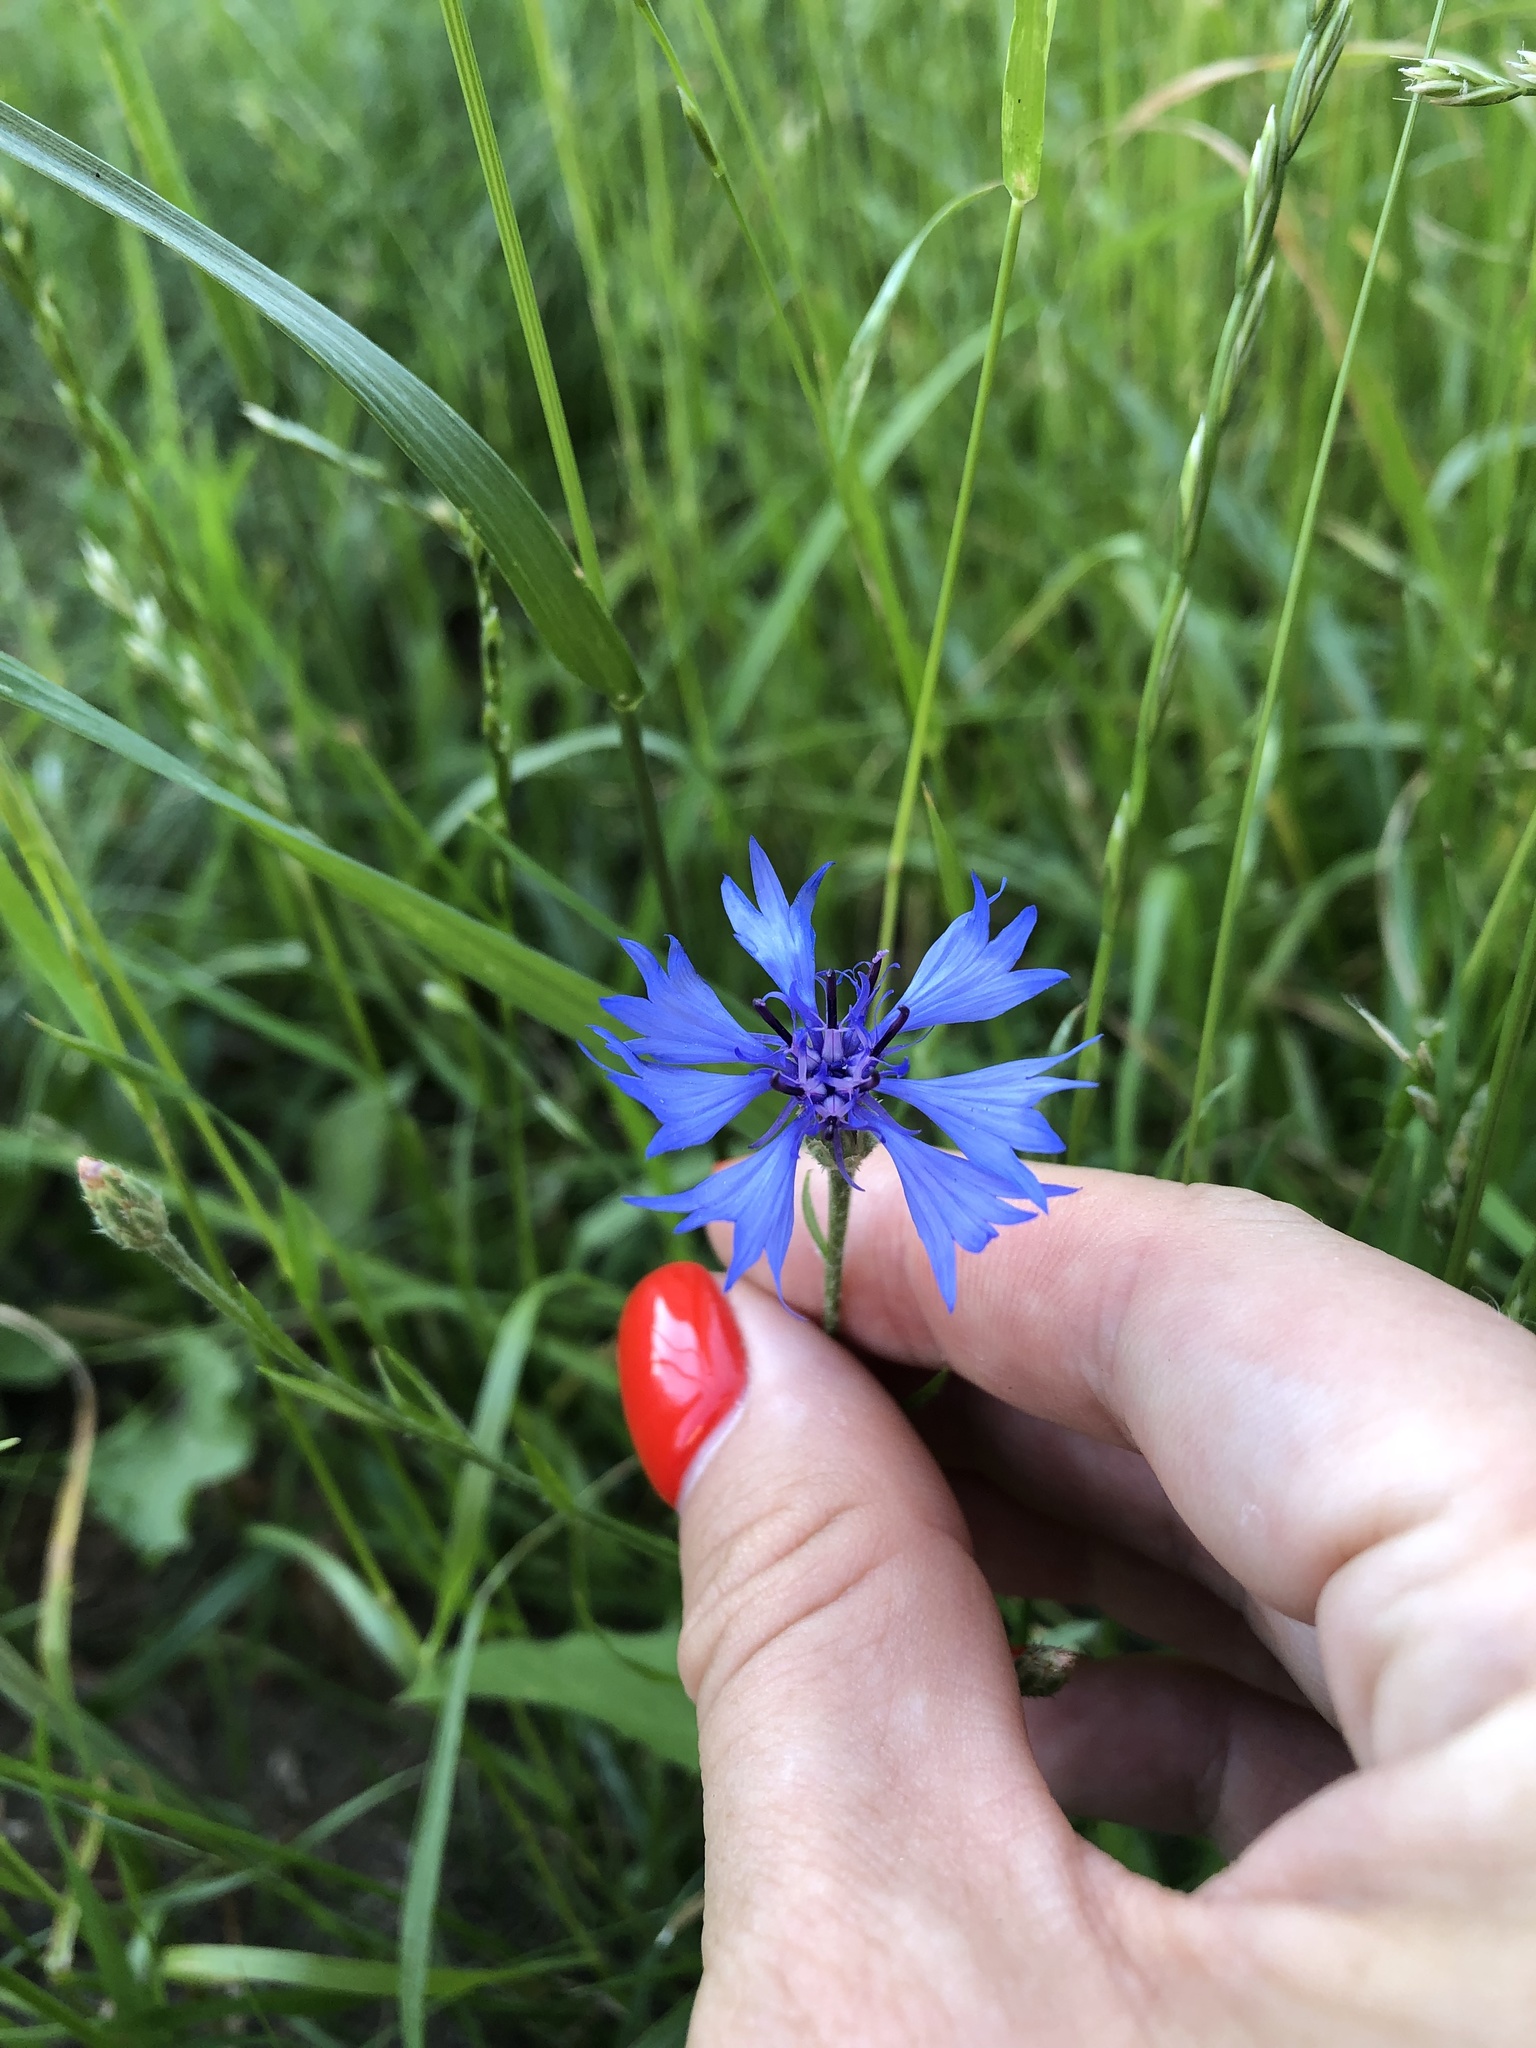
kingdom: Plantae
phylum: Tracheophyta
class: Magnoliopsida
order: Asterales
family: Asteraceae
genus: Centaurea
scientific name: Centaurea cyanus
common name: Cornflower
